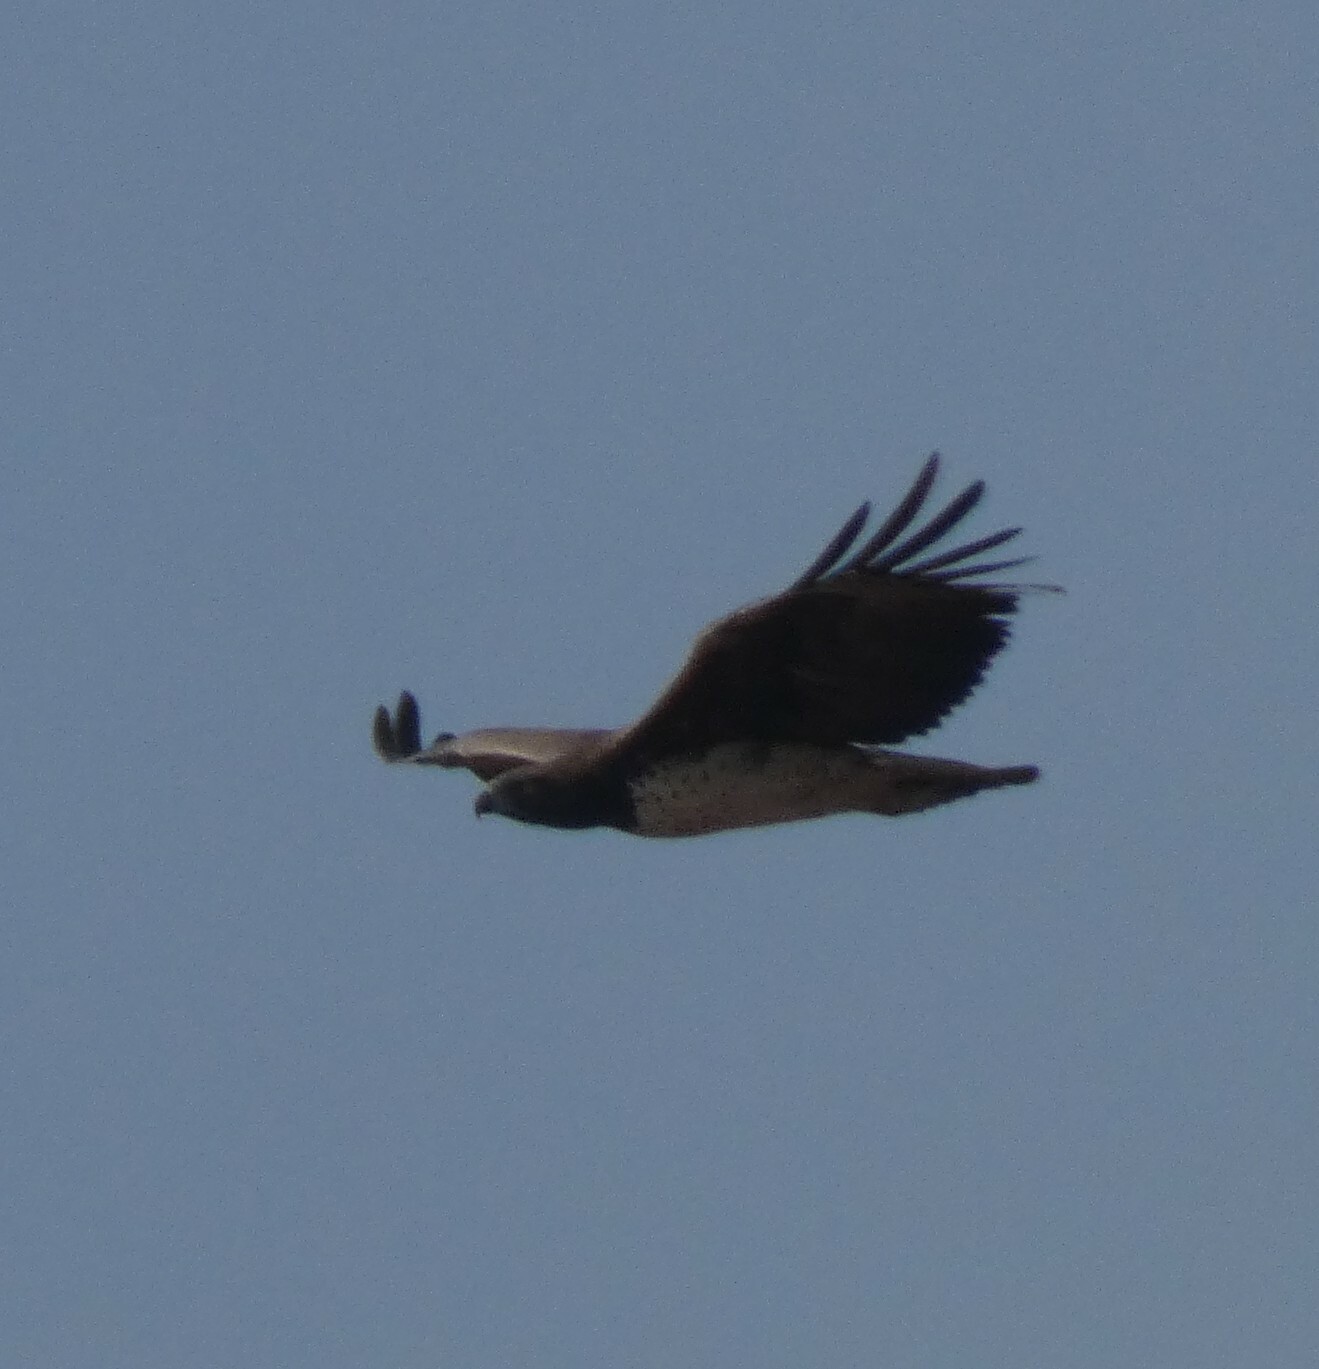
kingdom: Animalia
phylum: Chordata
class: Aves
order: Accipitriformes
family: Accipitridae
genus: Polemaetus
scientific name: Polemaetus bellicosus
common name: Martial eagle
